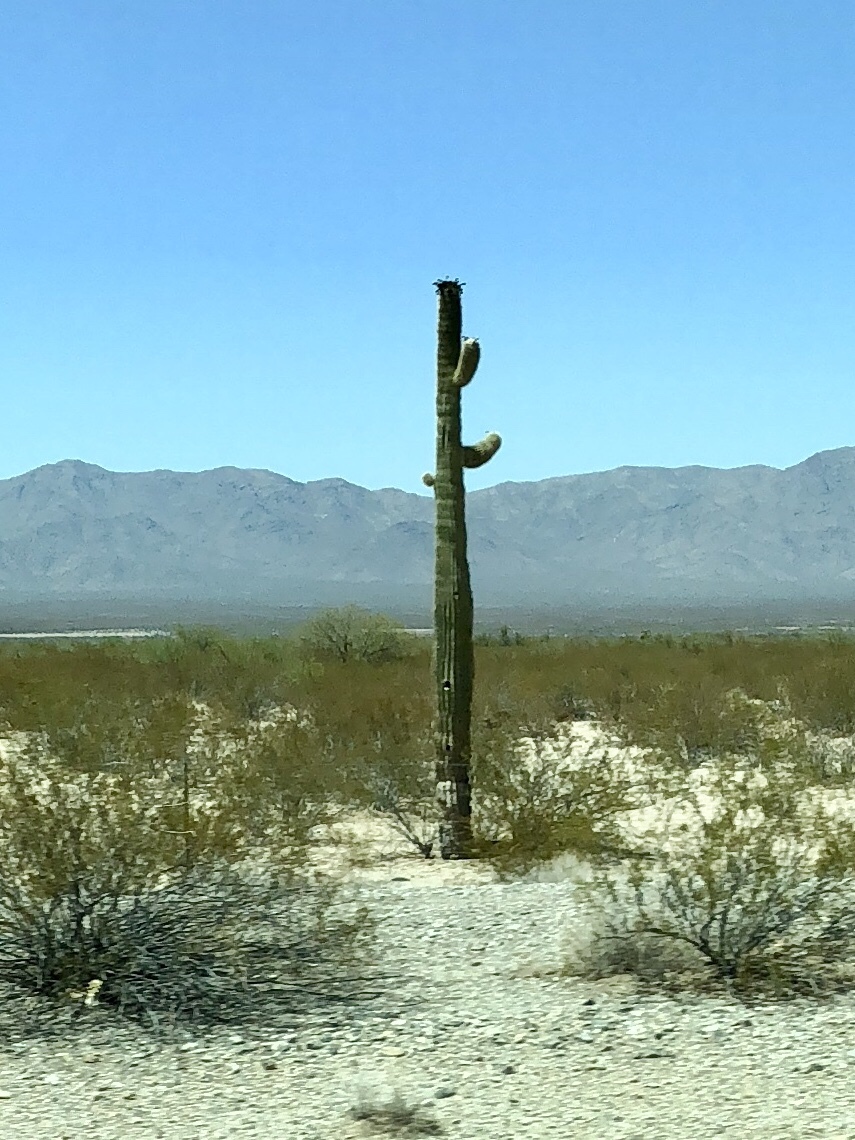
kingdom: Plantae
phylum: Tracheophyta
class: Magnoliopsida
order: Caryophyllales
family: Cactaceae
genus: Carnegiea
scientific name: Carnegiea gigantea
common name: Saguaro
